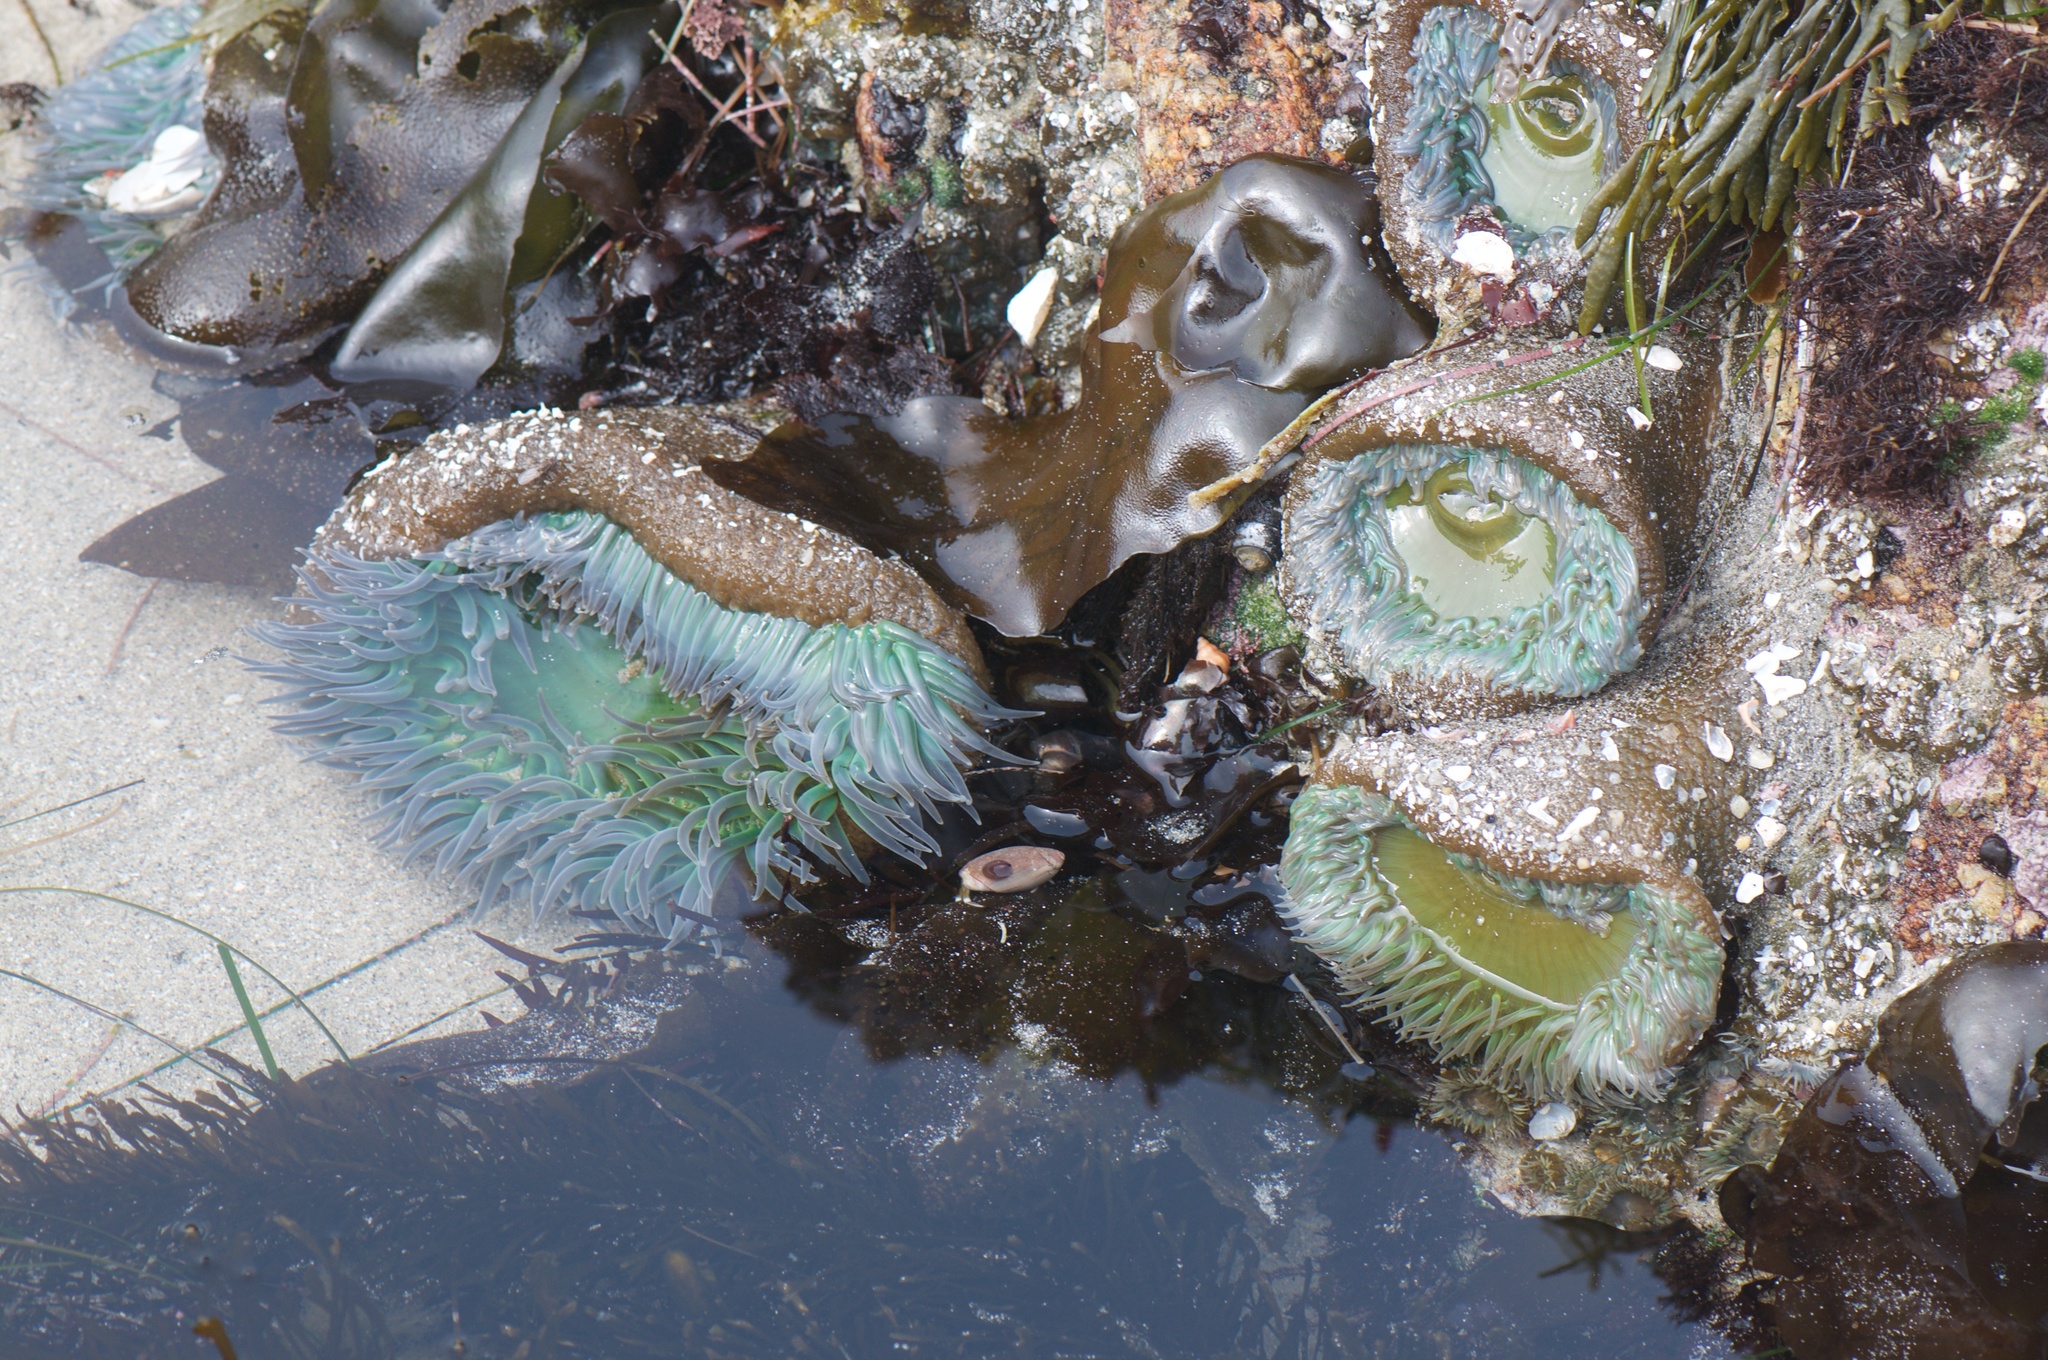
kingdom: Animalia
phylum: Cnidaria
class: Anthozoa
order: Actiniaria
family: Actiniidae
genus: Anthopleura
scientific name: Anthopleura xanthogrammica
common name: Giant green anemone
